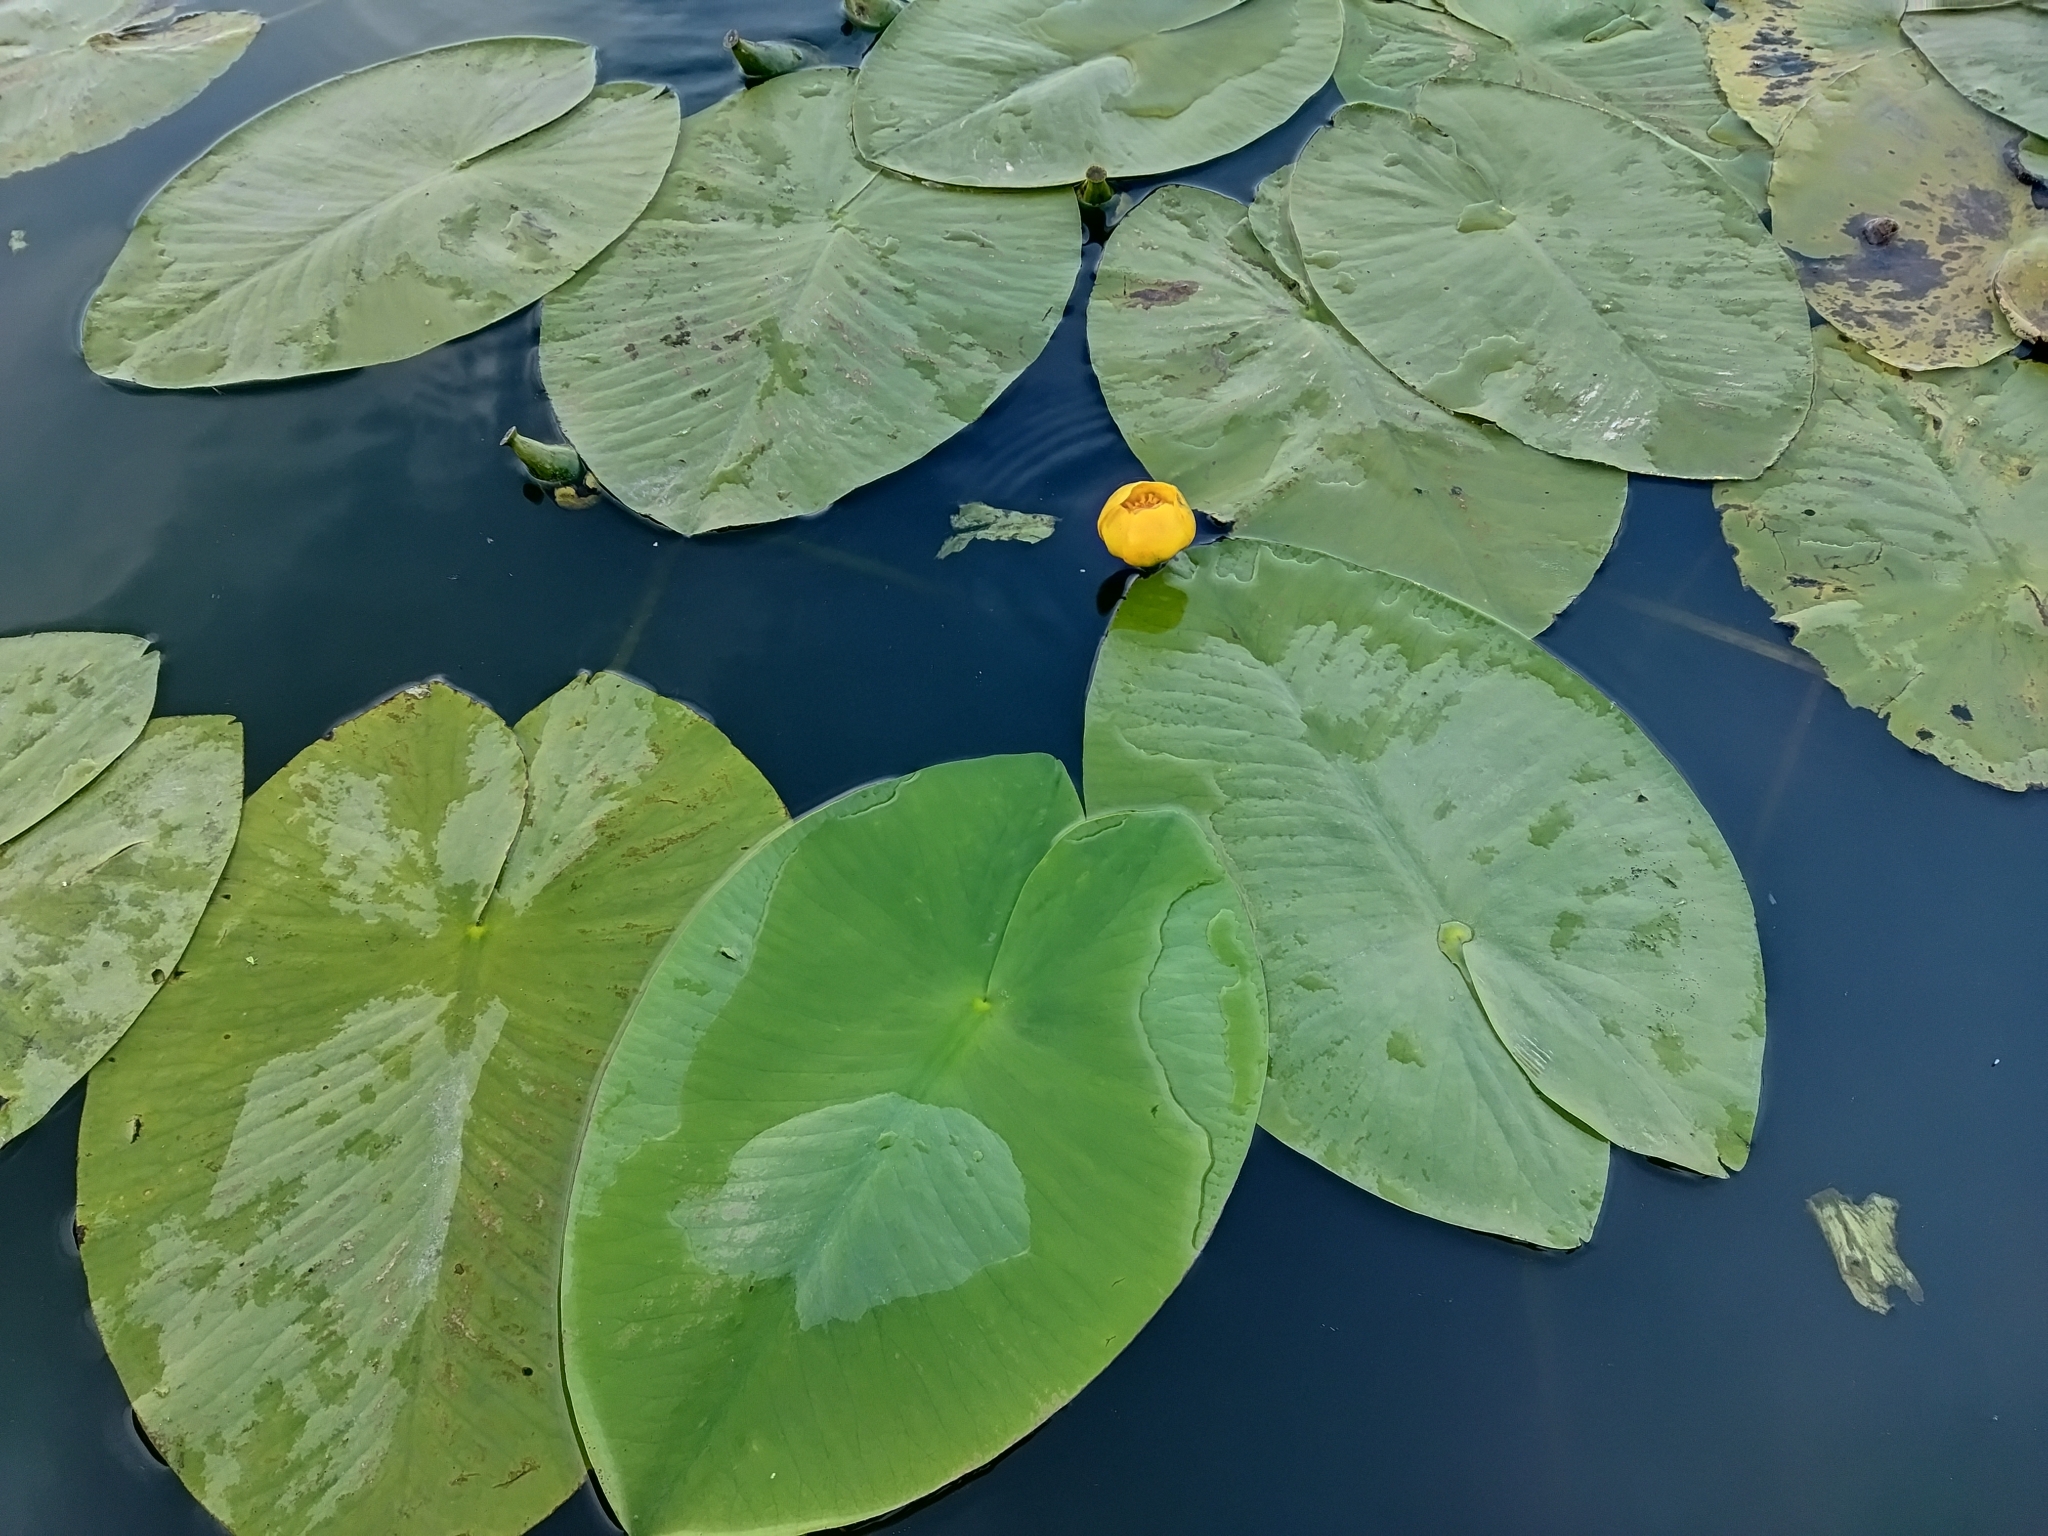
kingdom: Plantae
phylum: Tracheophyta
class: Magnoliopsida
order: Nymphaeales
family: Nymphaeaceae
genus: Nuphar
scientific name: Nuphar lutea
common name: Yellow water-lily
